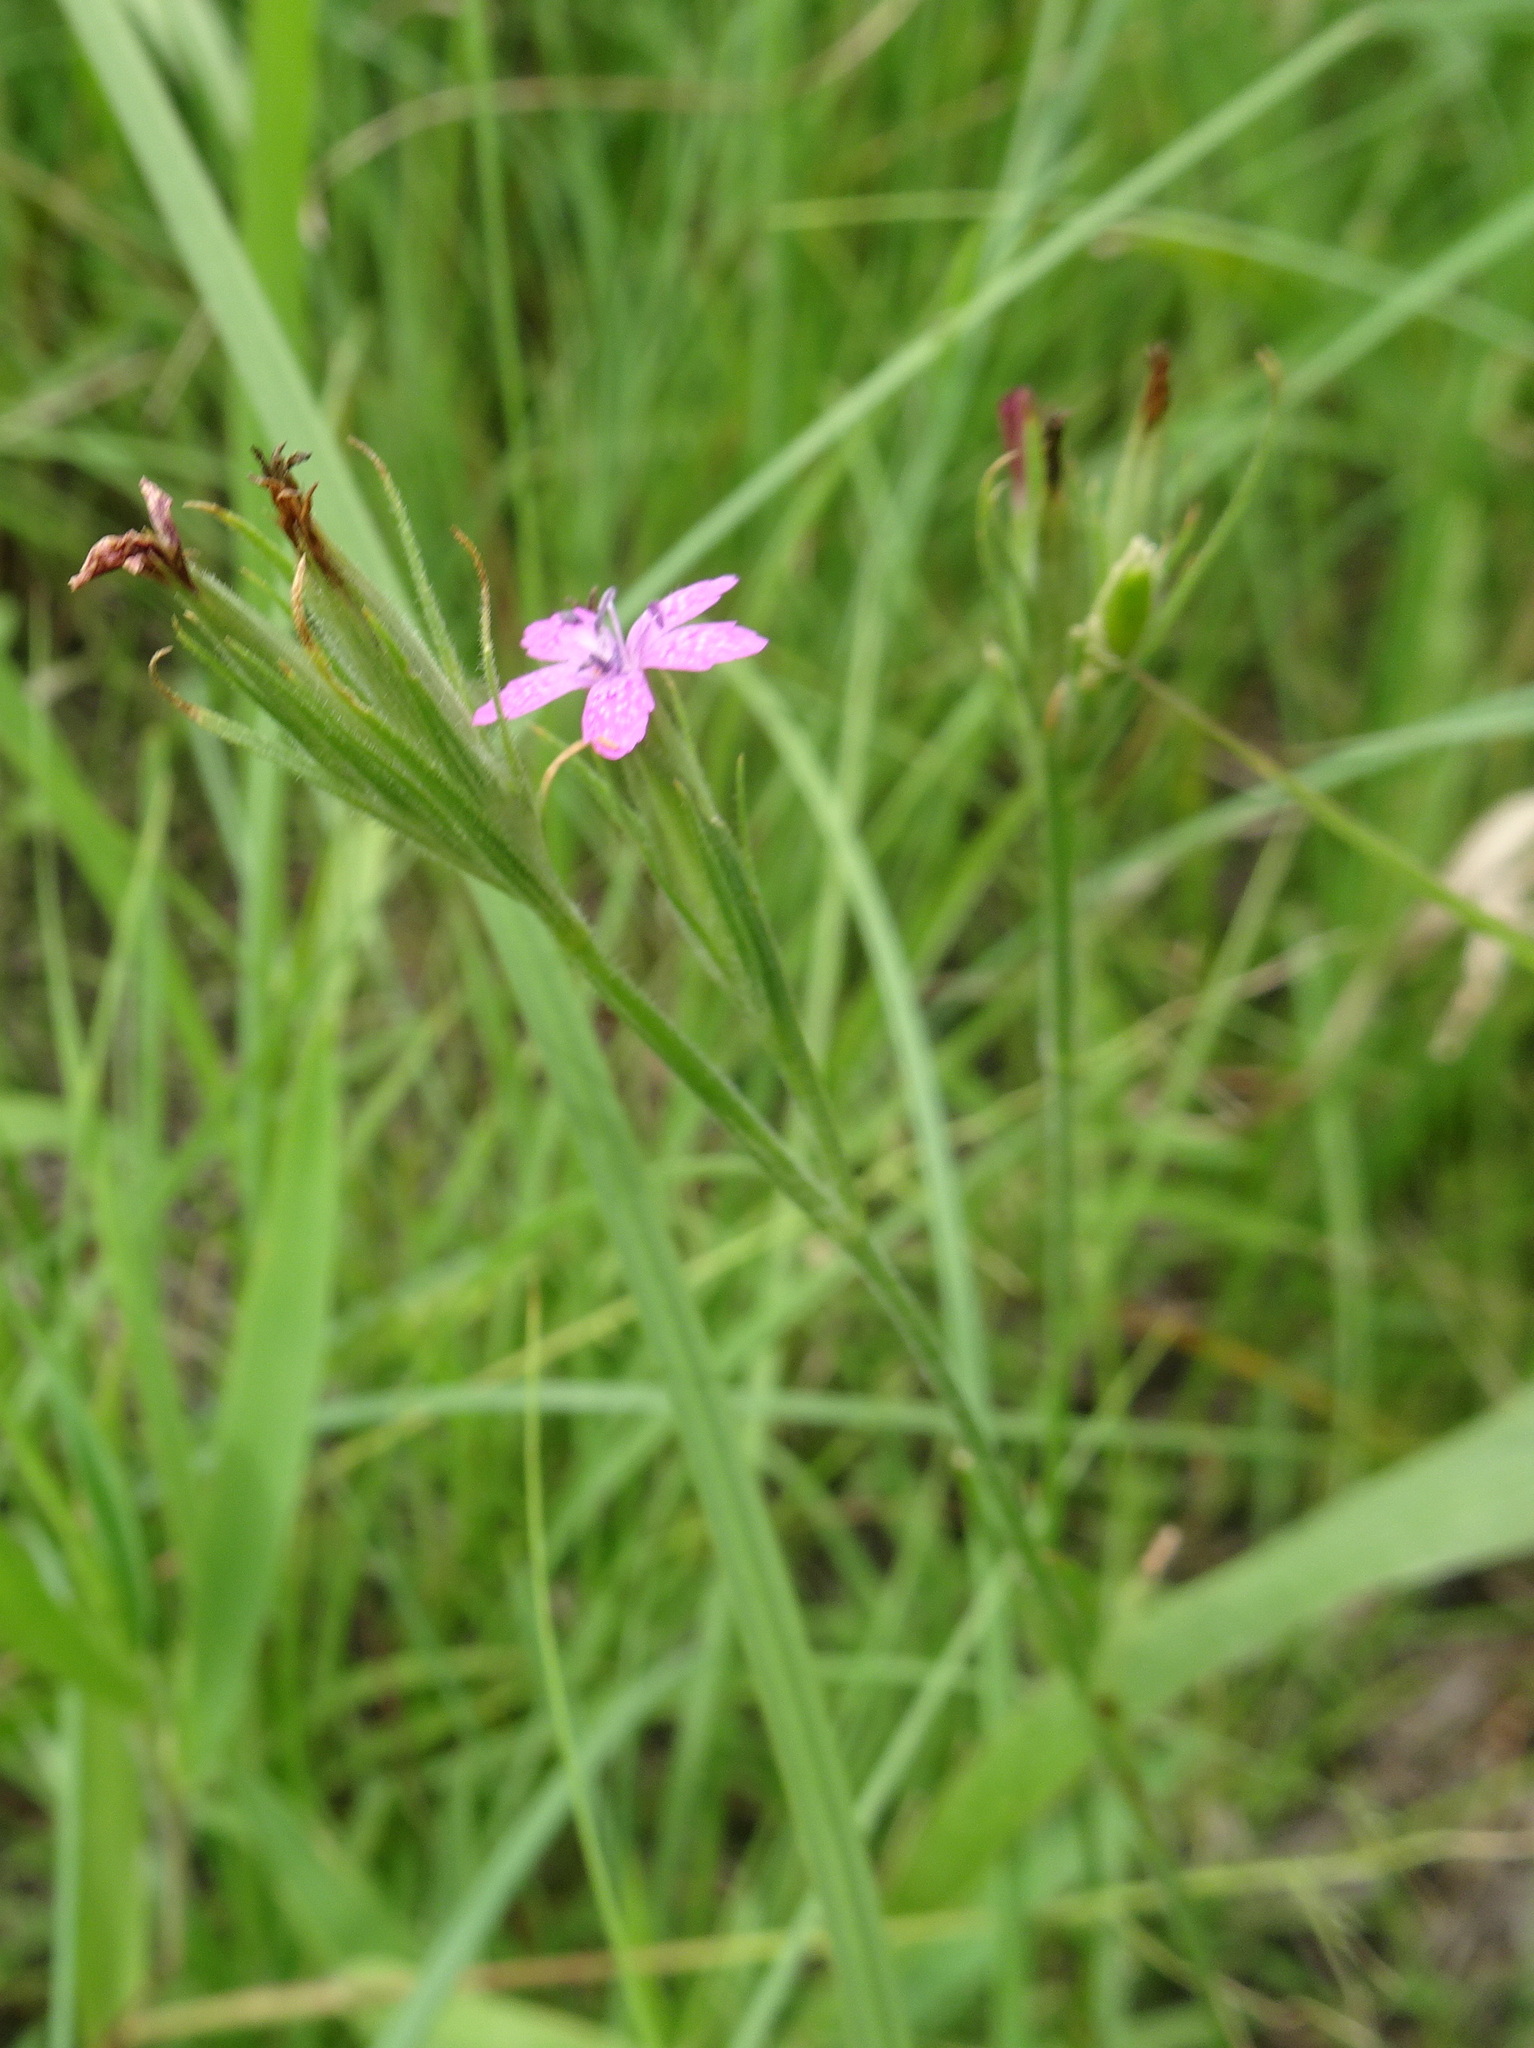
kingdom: Plantae
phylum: Tracheophyta
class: Magnoliopsida
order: Caryophyllales
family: Caryophyllaceae
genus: Dianthus
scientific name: Dianthus armeria
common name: Deptford pink
